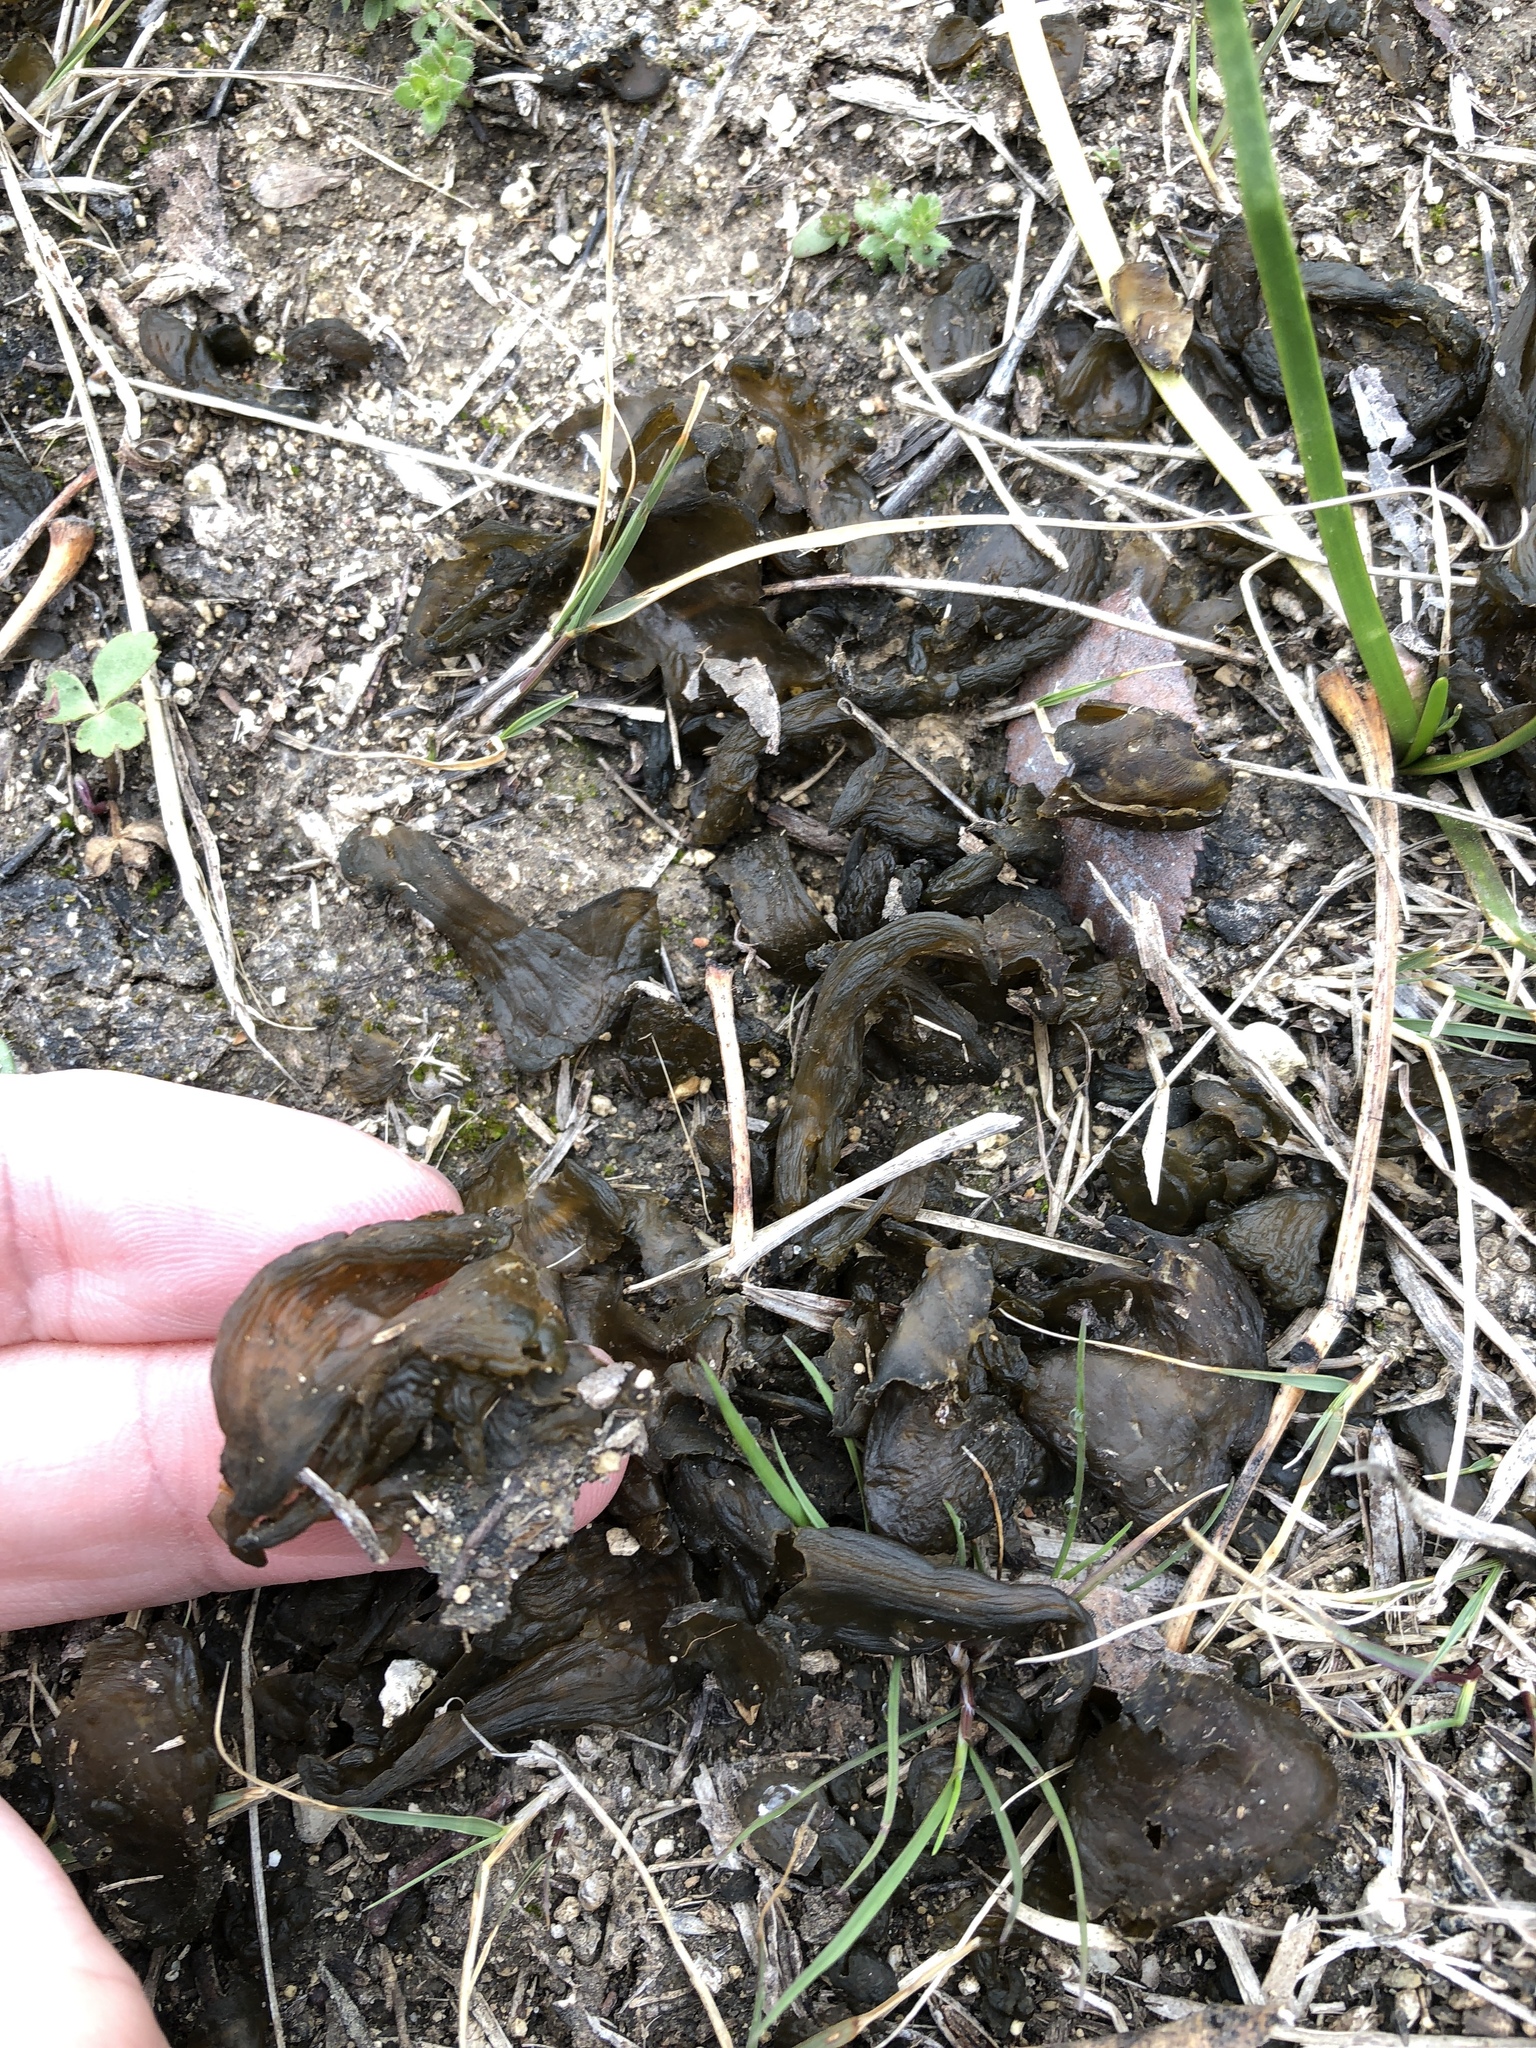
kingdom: Bacteria
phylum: Cyanobacteria
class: Cyanobacteriia
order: Cyanobacteriales
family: Nostocaceae
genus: Nostoc
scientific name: Nostoc commune
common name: Star jelly
